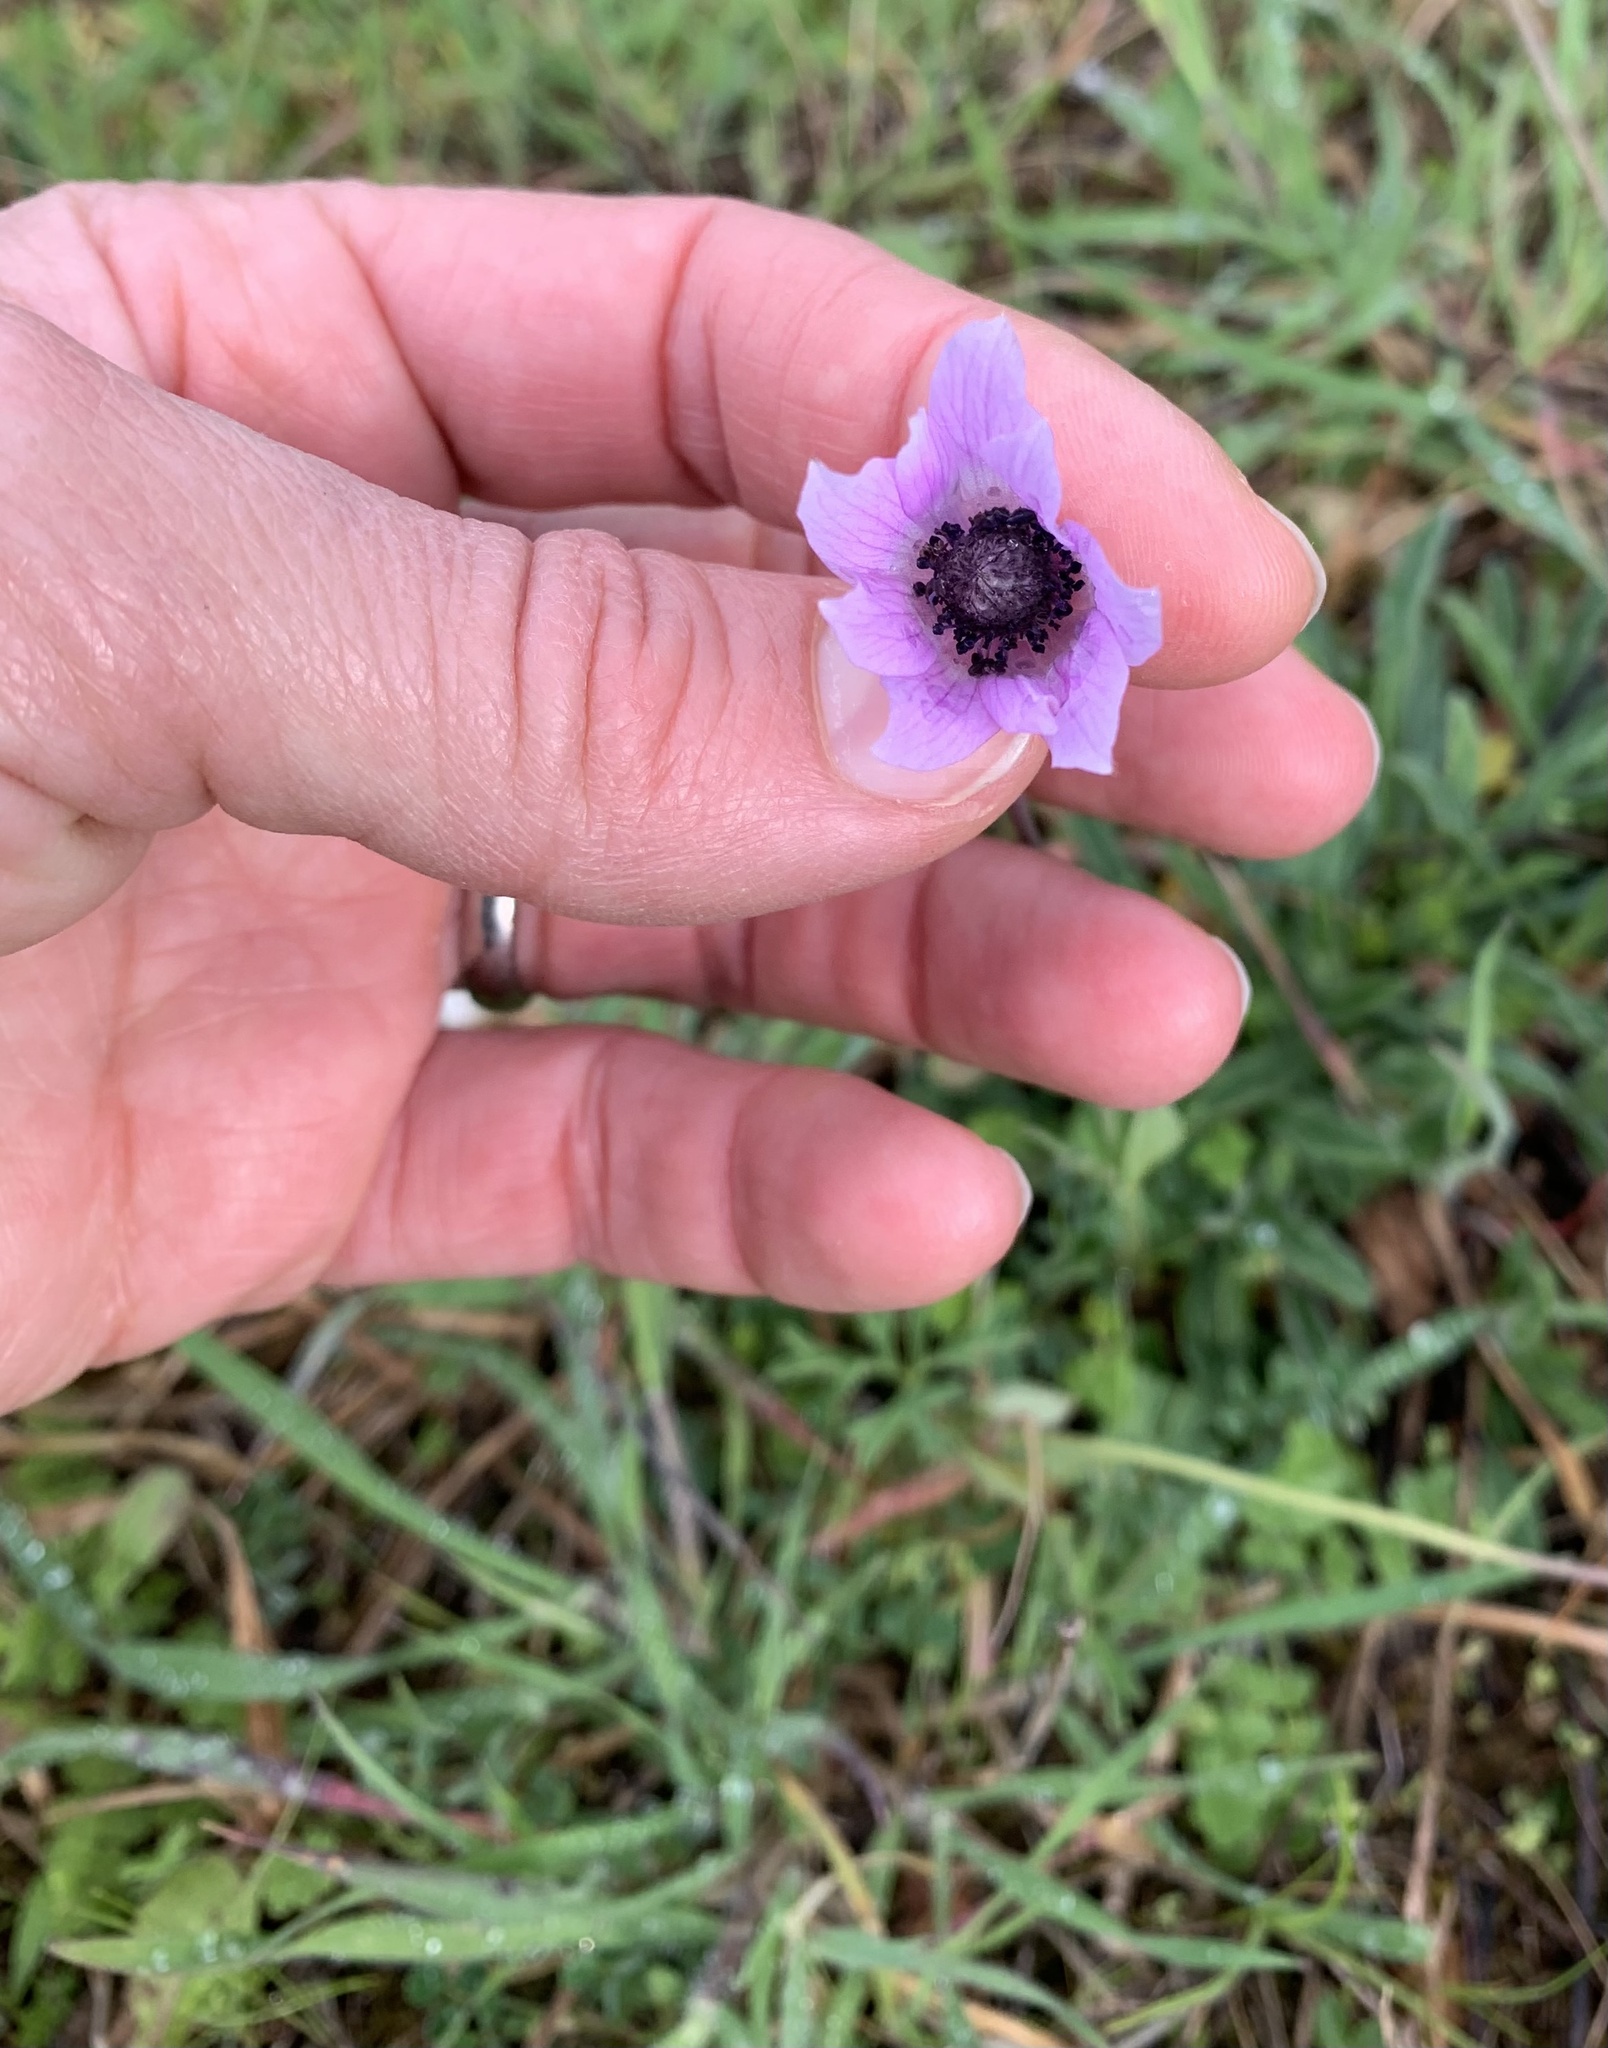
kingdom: Plantae
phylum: Tracheophyta
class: Magnoliopsida
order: Ranunculales
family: Ranunculaceae
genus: Anemone
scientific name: Anemone hortensis
